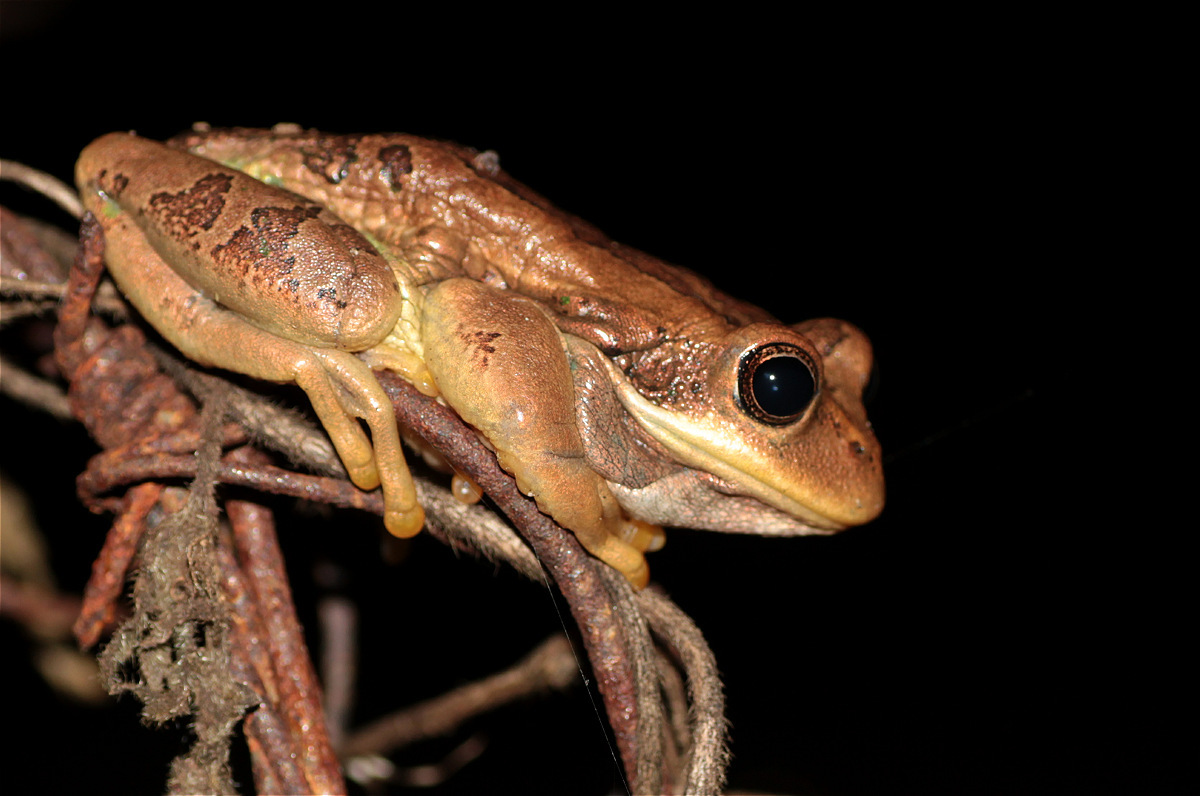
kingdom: Animalia
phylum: Chordata
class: Amphibia
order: Anura
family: Hemiphractidae
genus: Gastrotheca
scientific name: Gastrotheca cuencana
